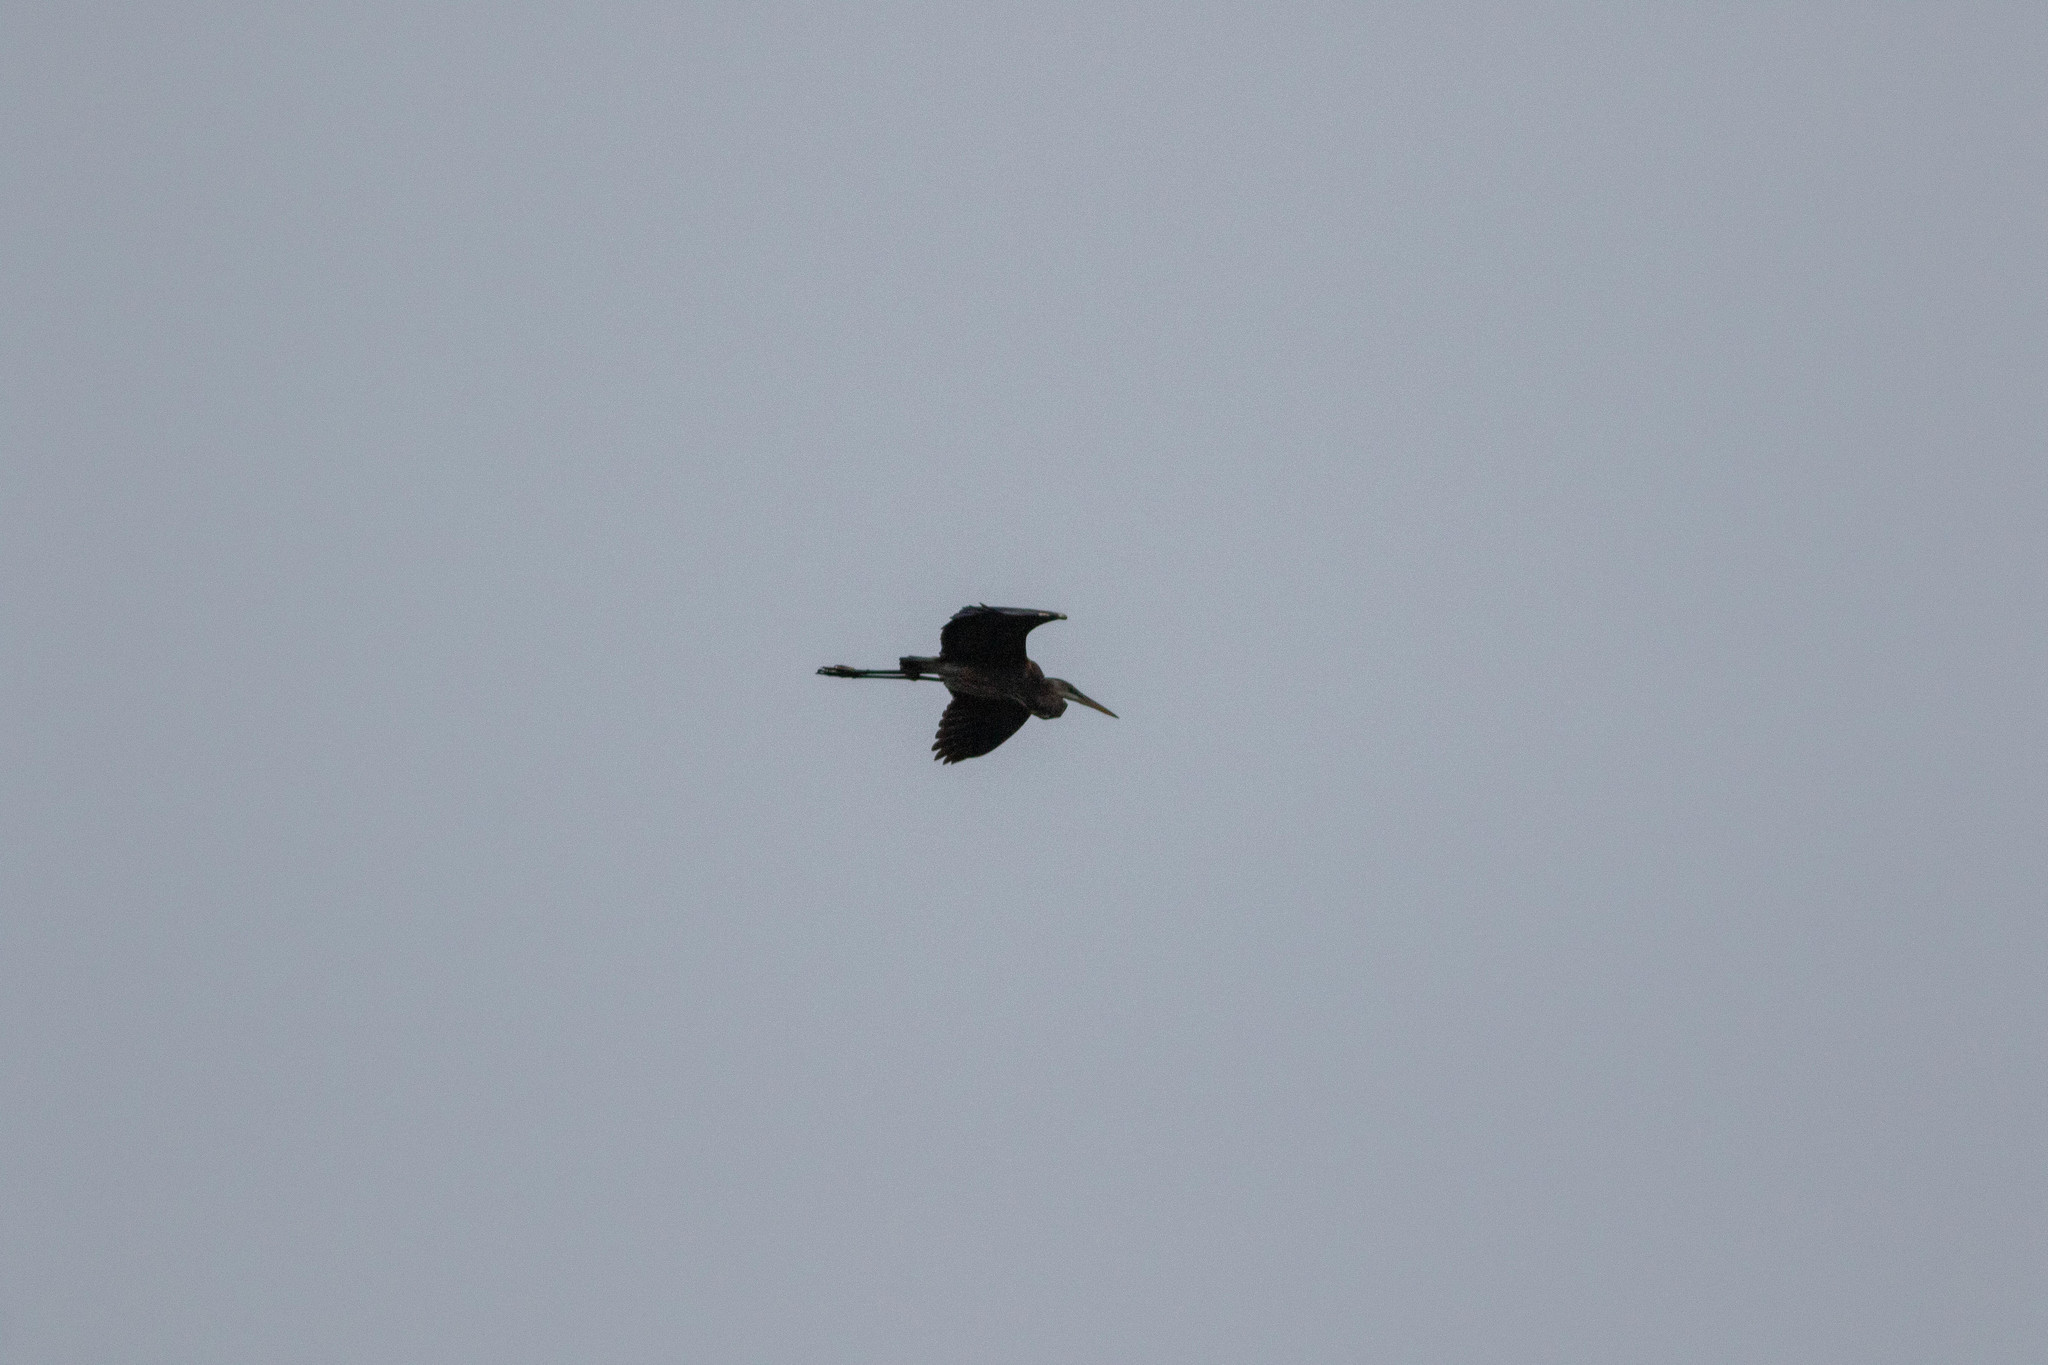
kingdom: Animalia
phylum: Chordata
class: Aves
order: Pelecaniformes
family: Ardeidae
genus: Ardea
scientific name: Ardea herodias
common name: Great blue heron
